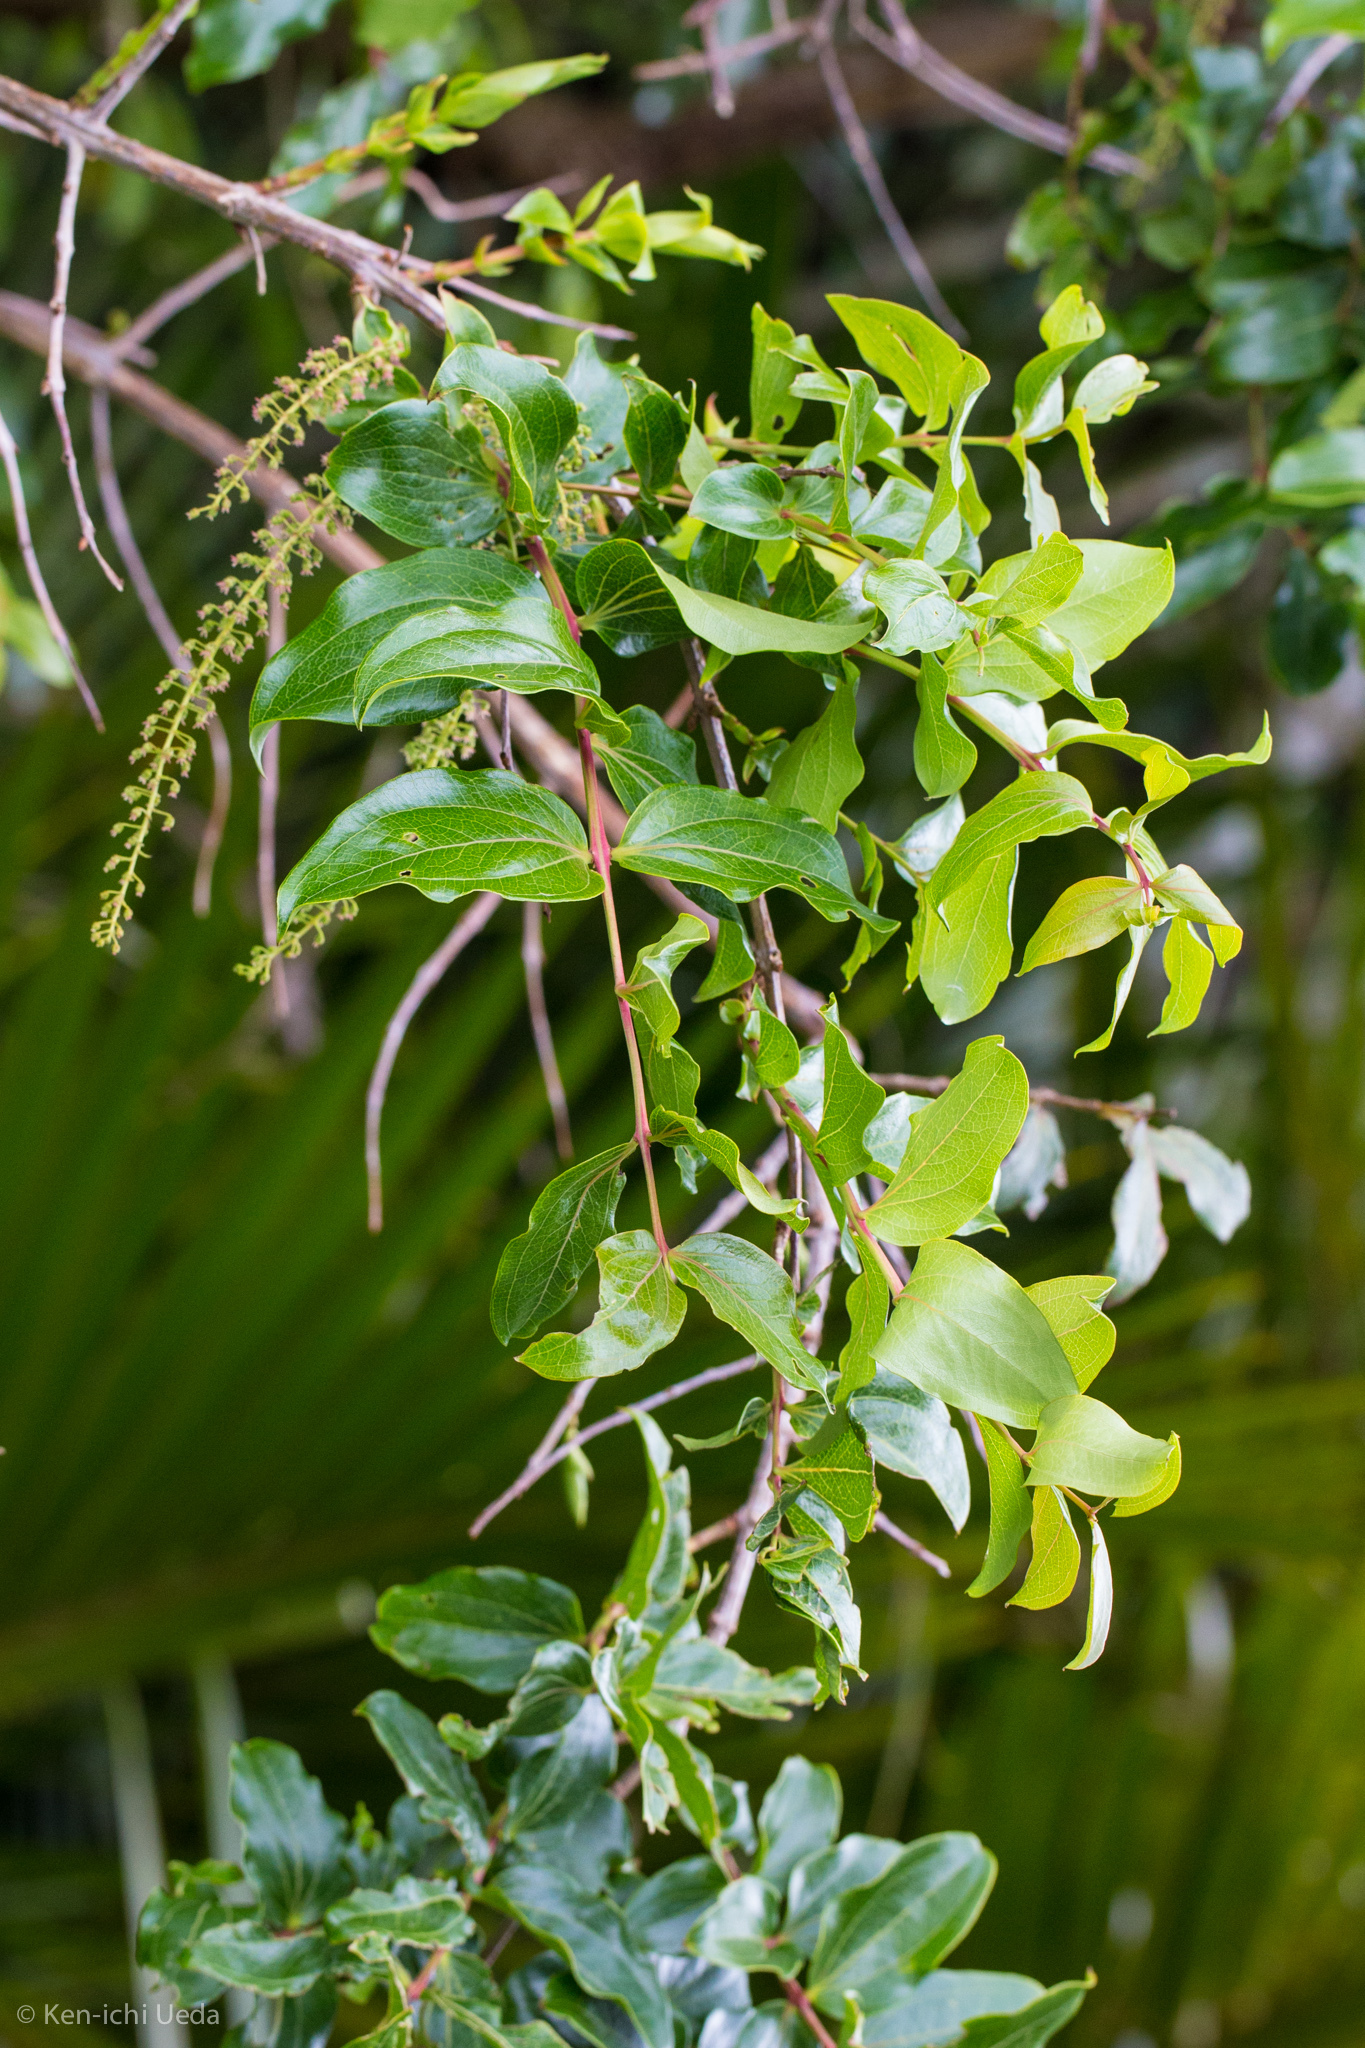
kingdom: Plantae
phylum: Tracheophyta
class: Magnoliopsida
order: Cucurbitales
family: Coriariaceae
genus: Coriaria
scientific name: Coriaria
